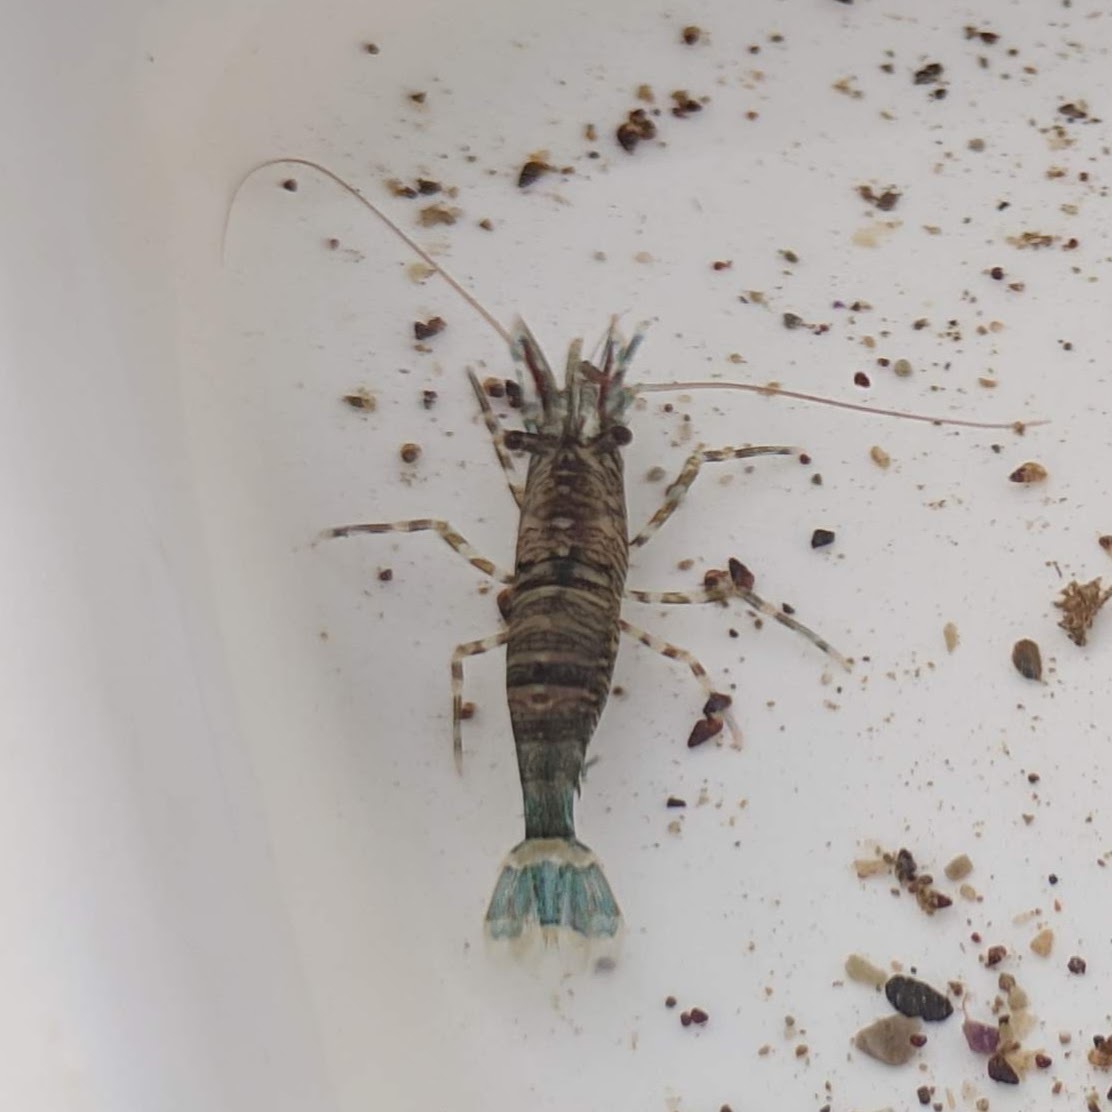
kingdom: Animalia
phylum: Arthropoda
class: Malacostraca
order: Decapoda
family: Thoridae
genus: Heptacarpus
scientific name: Heptacarpus sitchensis
